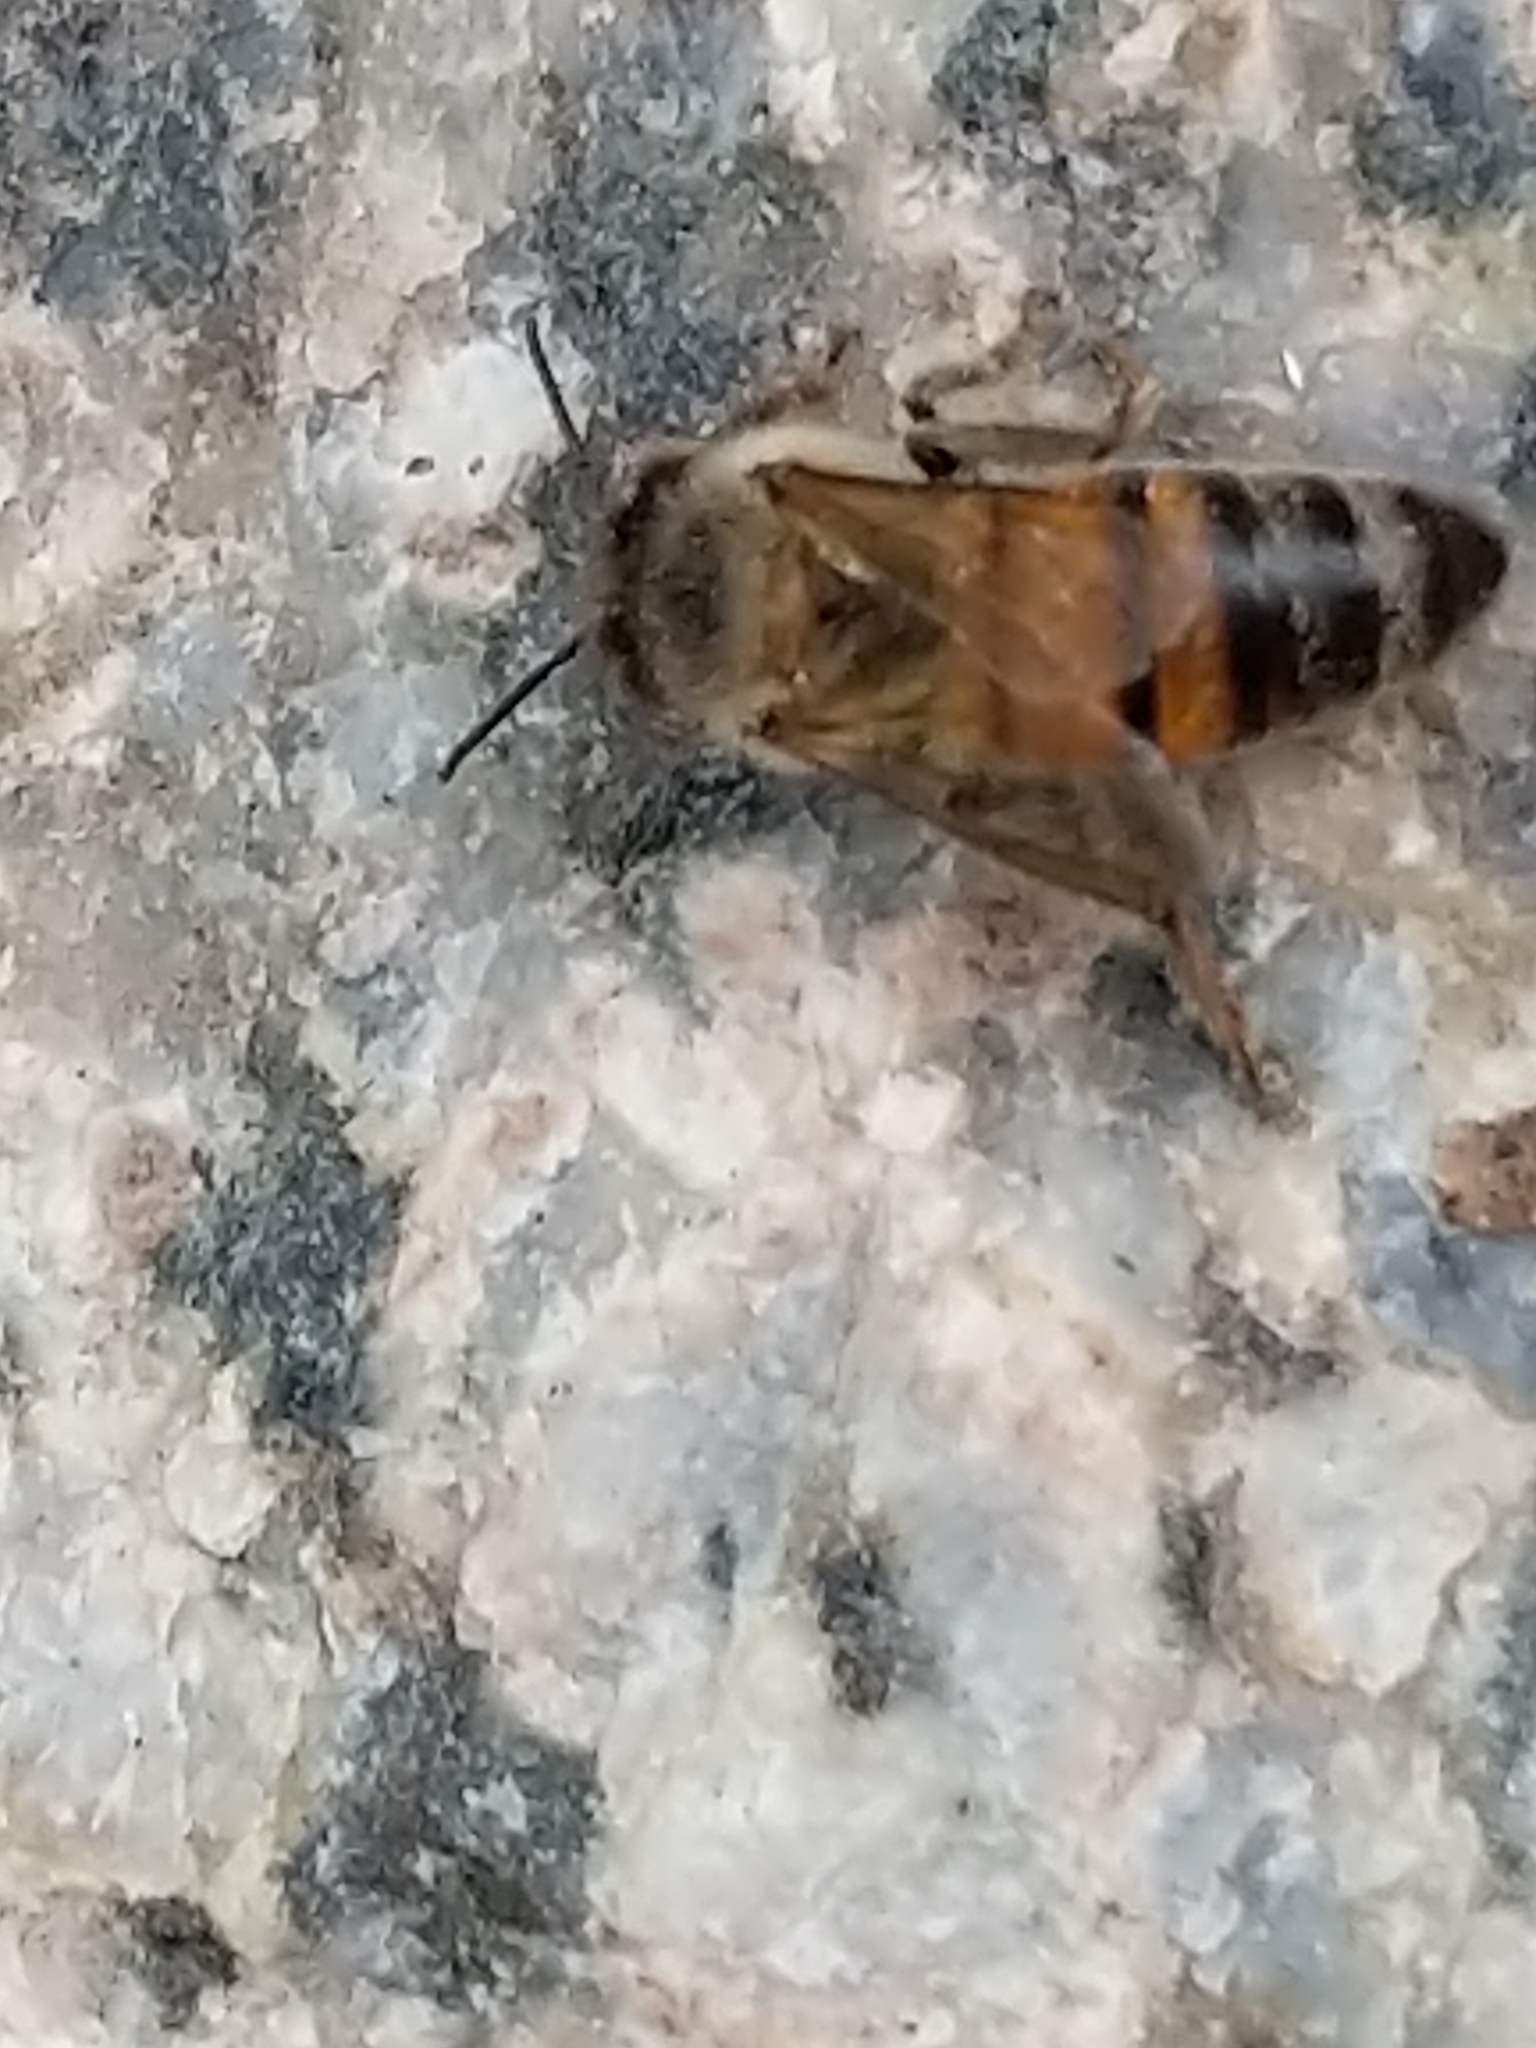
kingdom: Animalia
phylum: Arthropoda
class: Insecta
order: Hymenoptera
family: Apidae
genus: Apis
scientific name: Apis mellifera
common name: Honey bee
